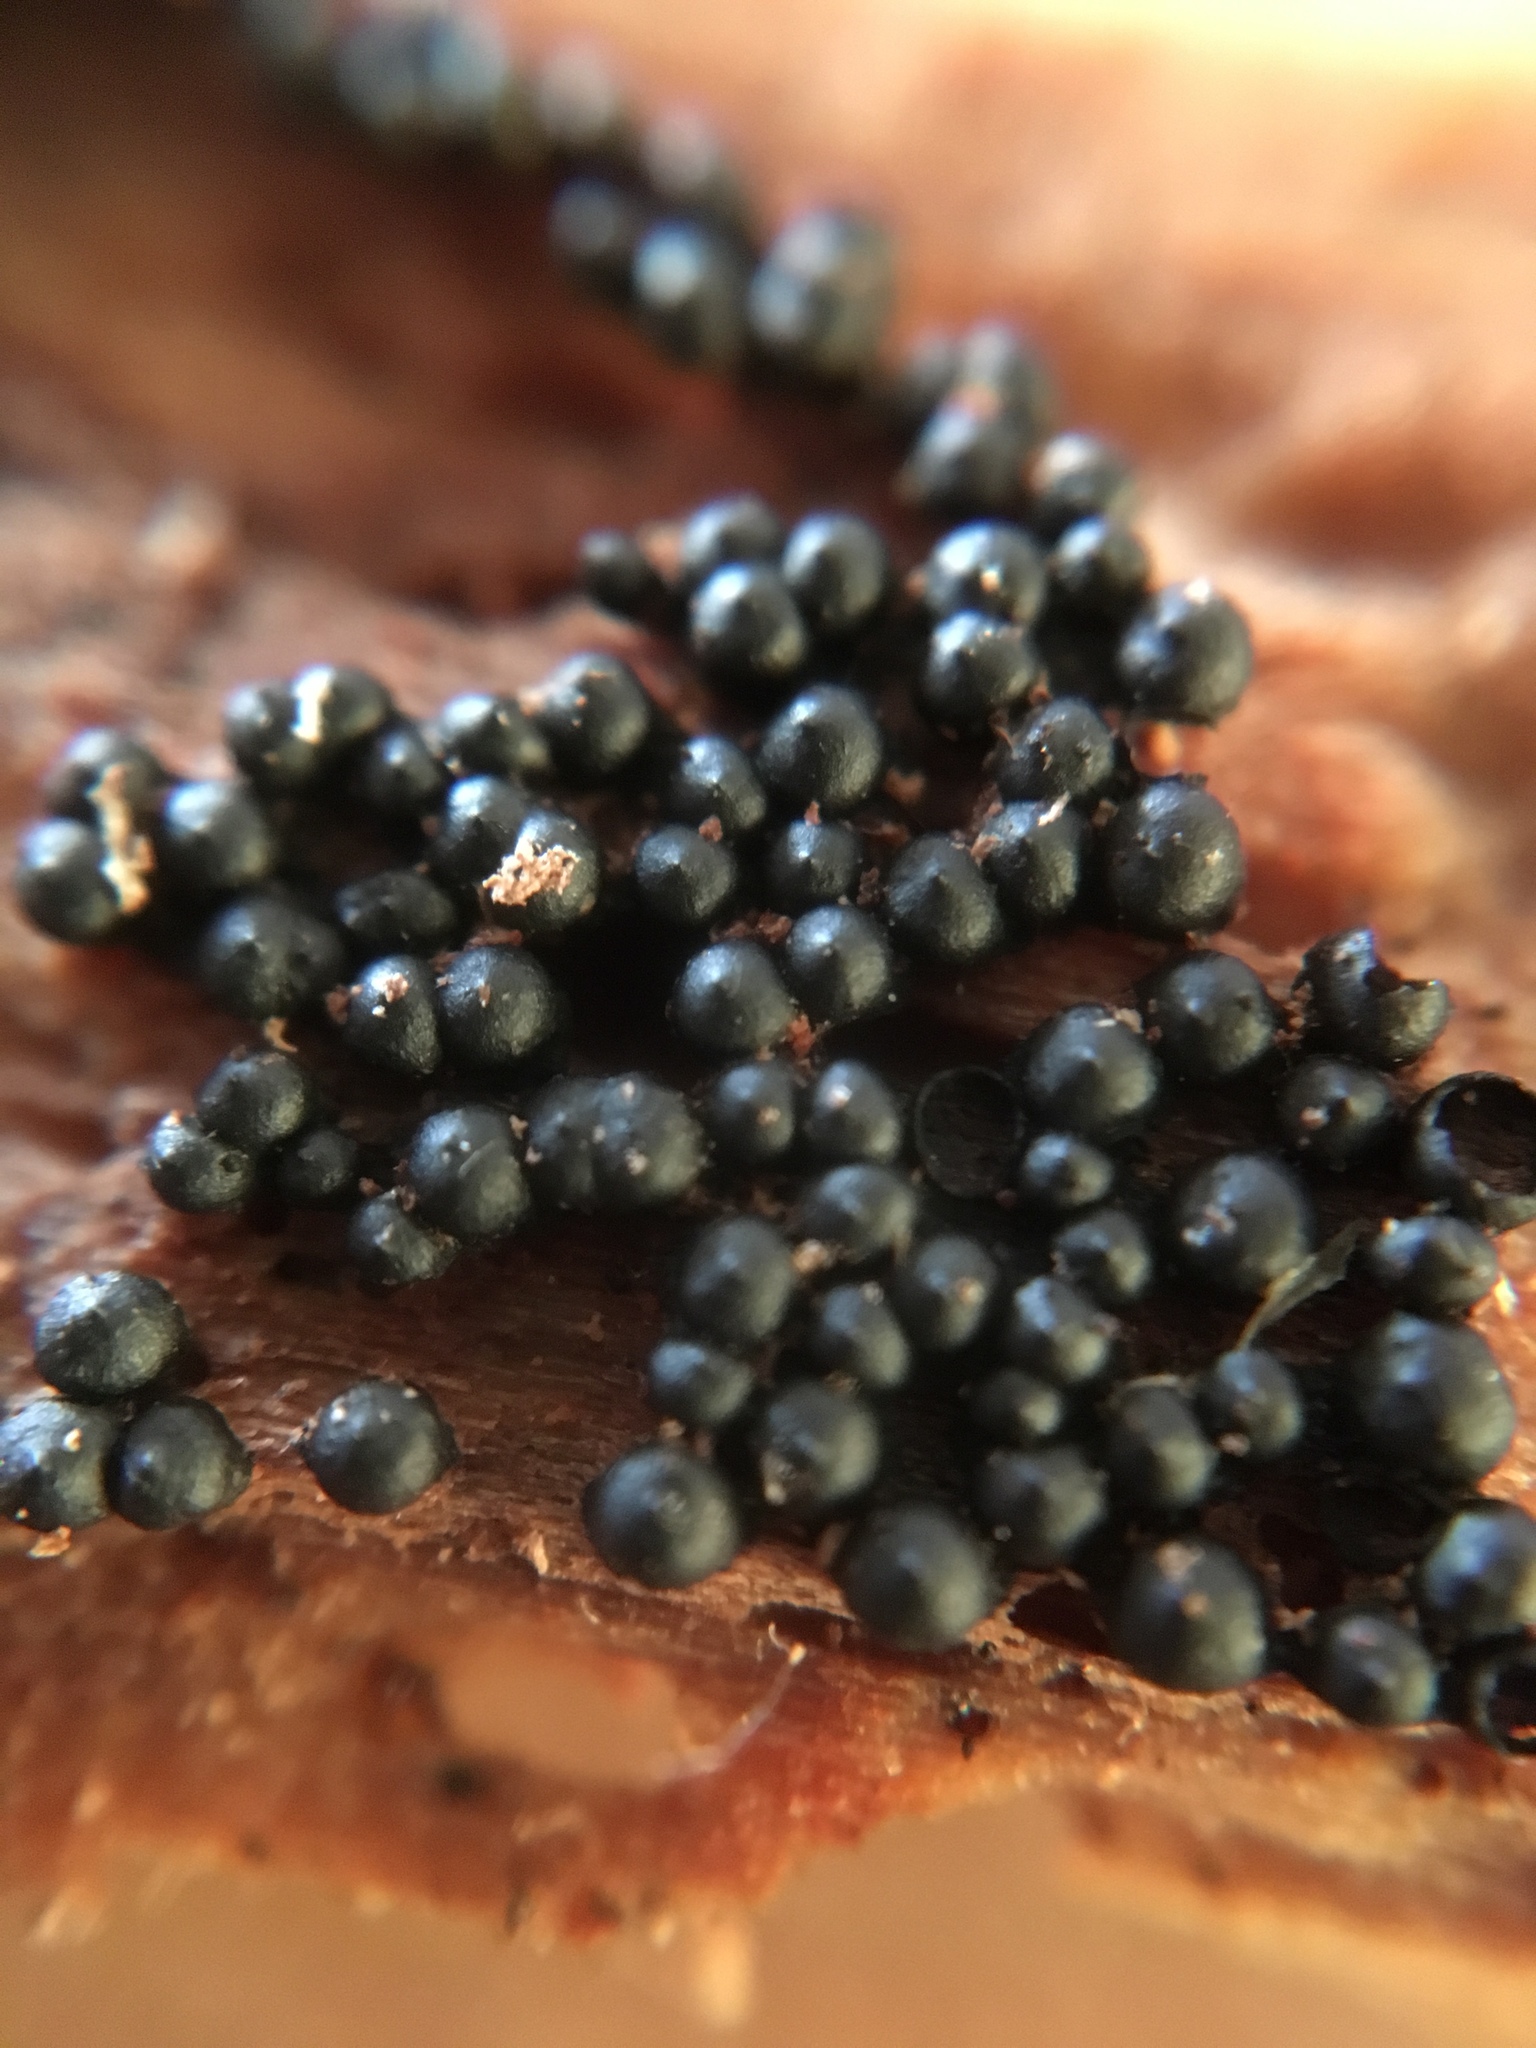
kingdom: Fungi
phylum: Ascomycota
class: Sordariomycetes
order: Xylariales
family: Xylariaceae
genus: Rosellinia
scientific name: Rosellinia subiculata
